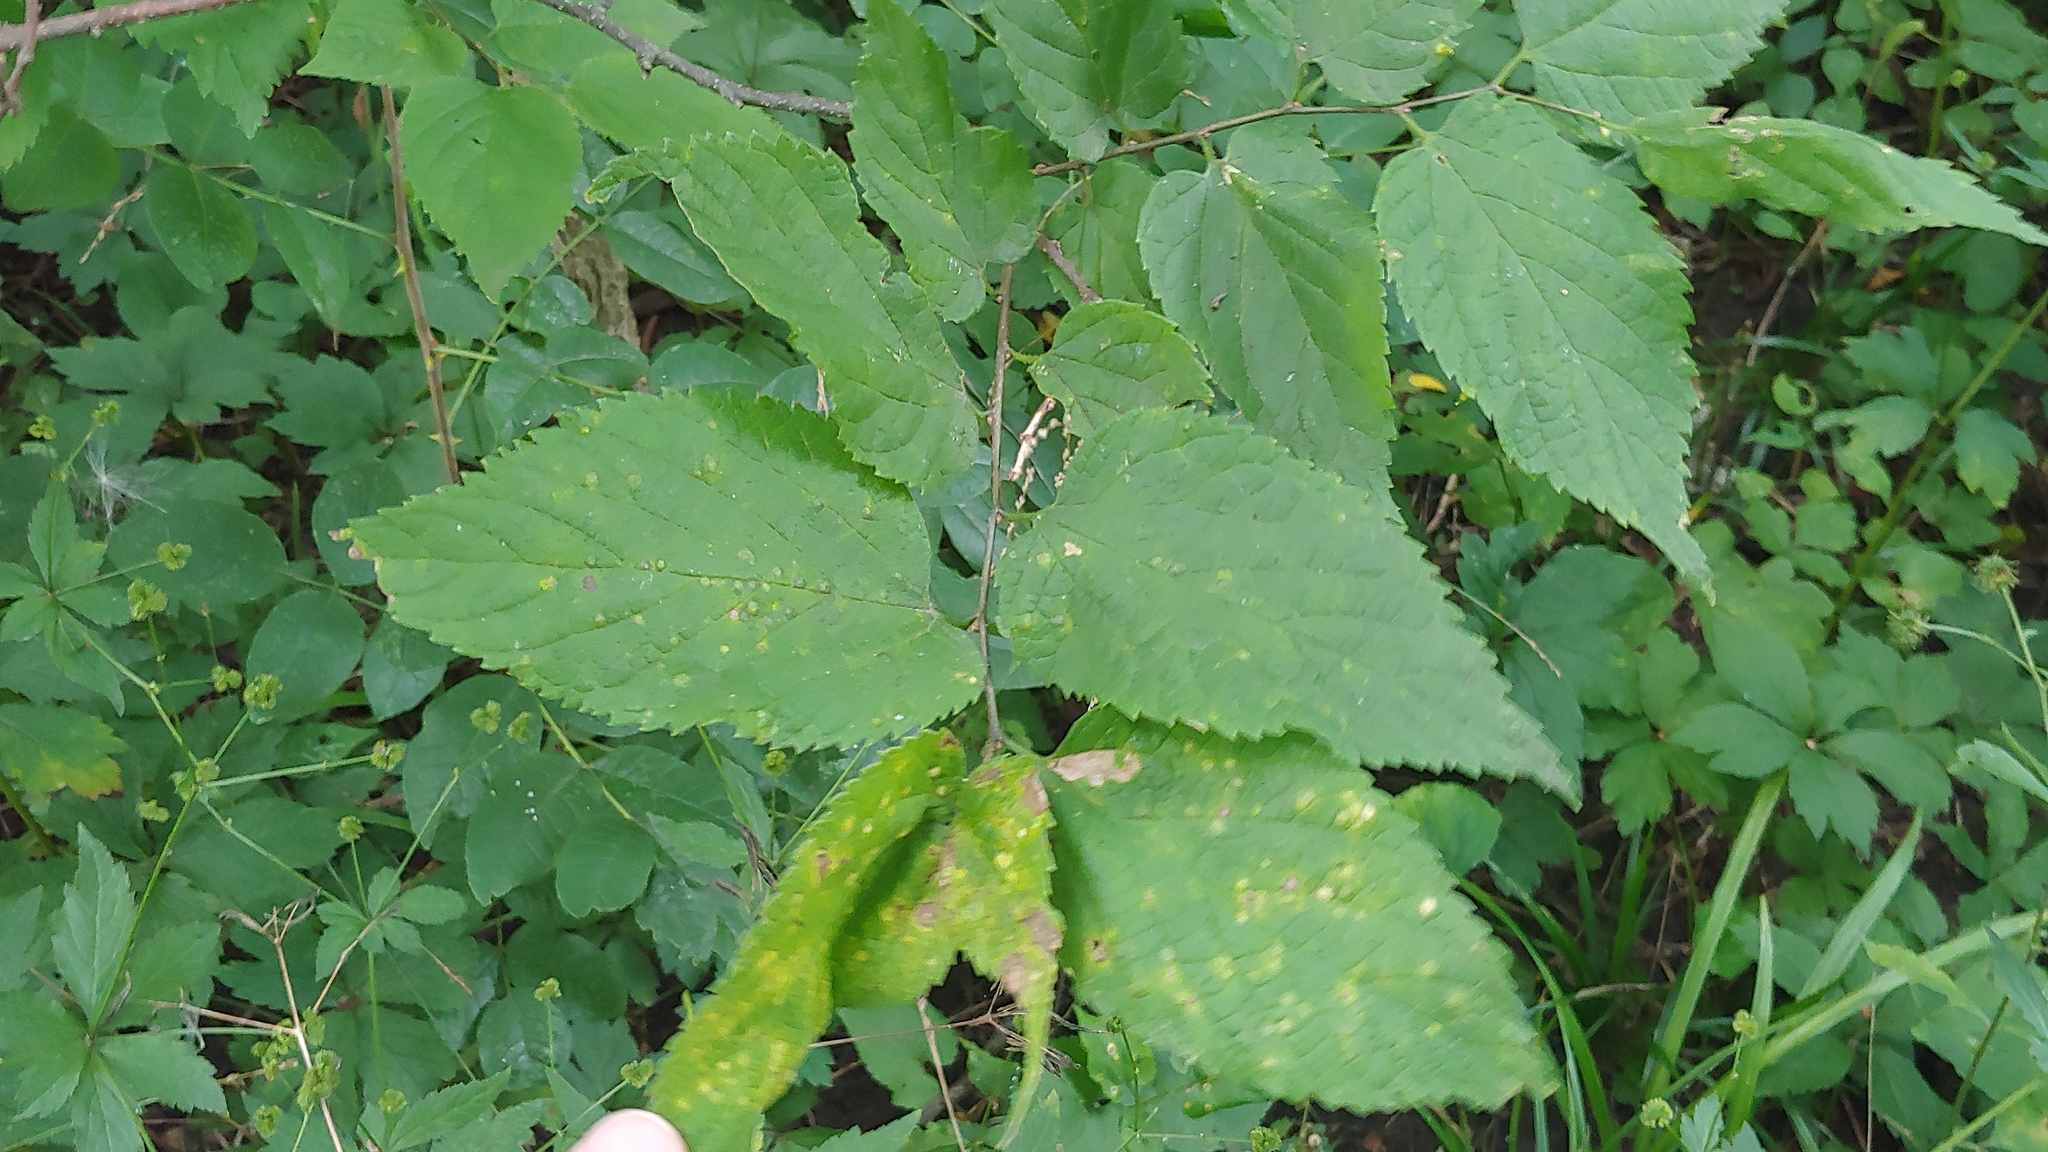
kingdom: Animalia
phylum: Arthropoda
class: Insecta
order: Hemiptera
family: Aphalaridae
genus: Pachypsylla
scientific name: Pachypsylla venusta
